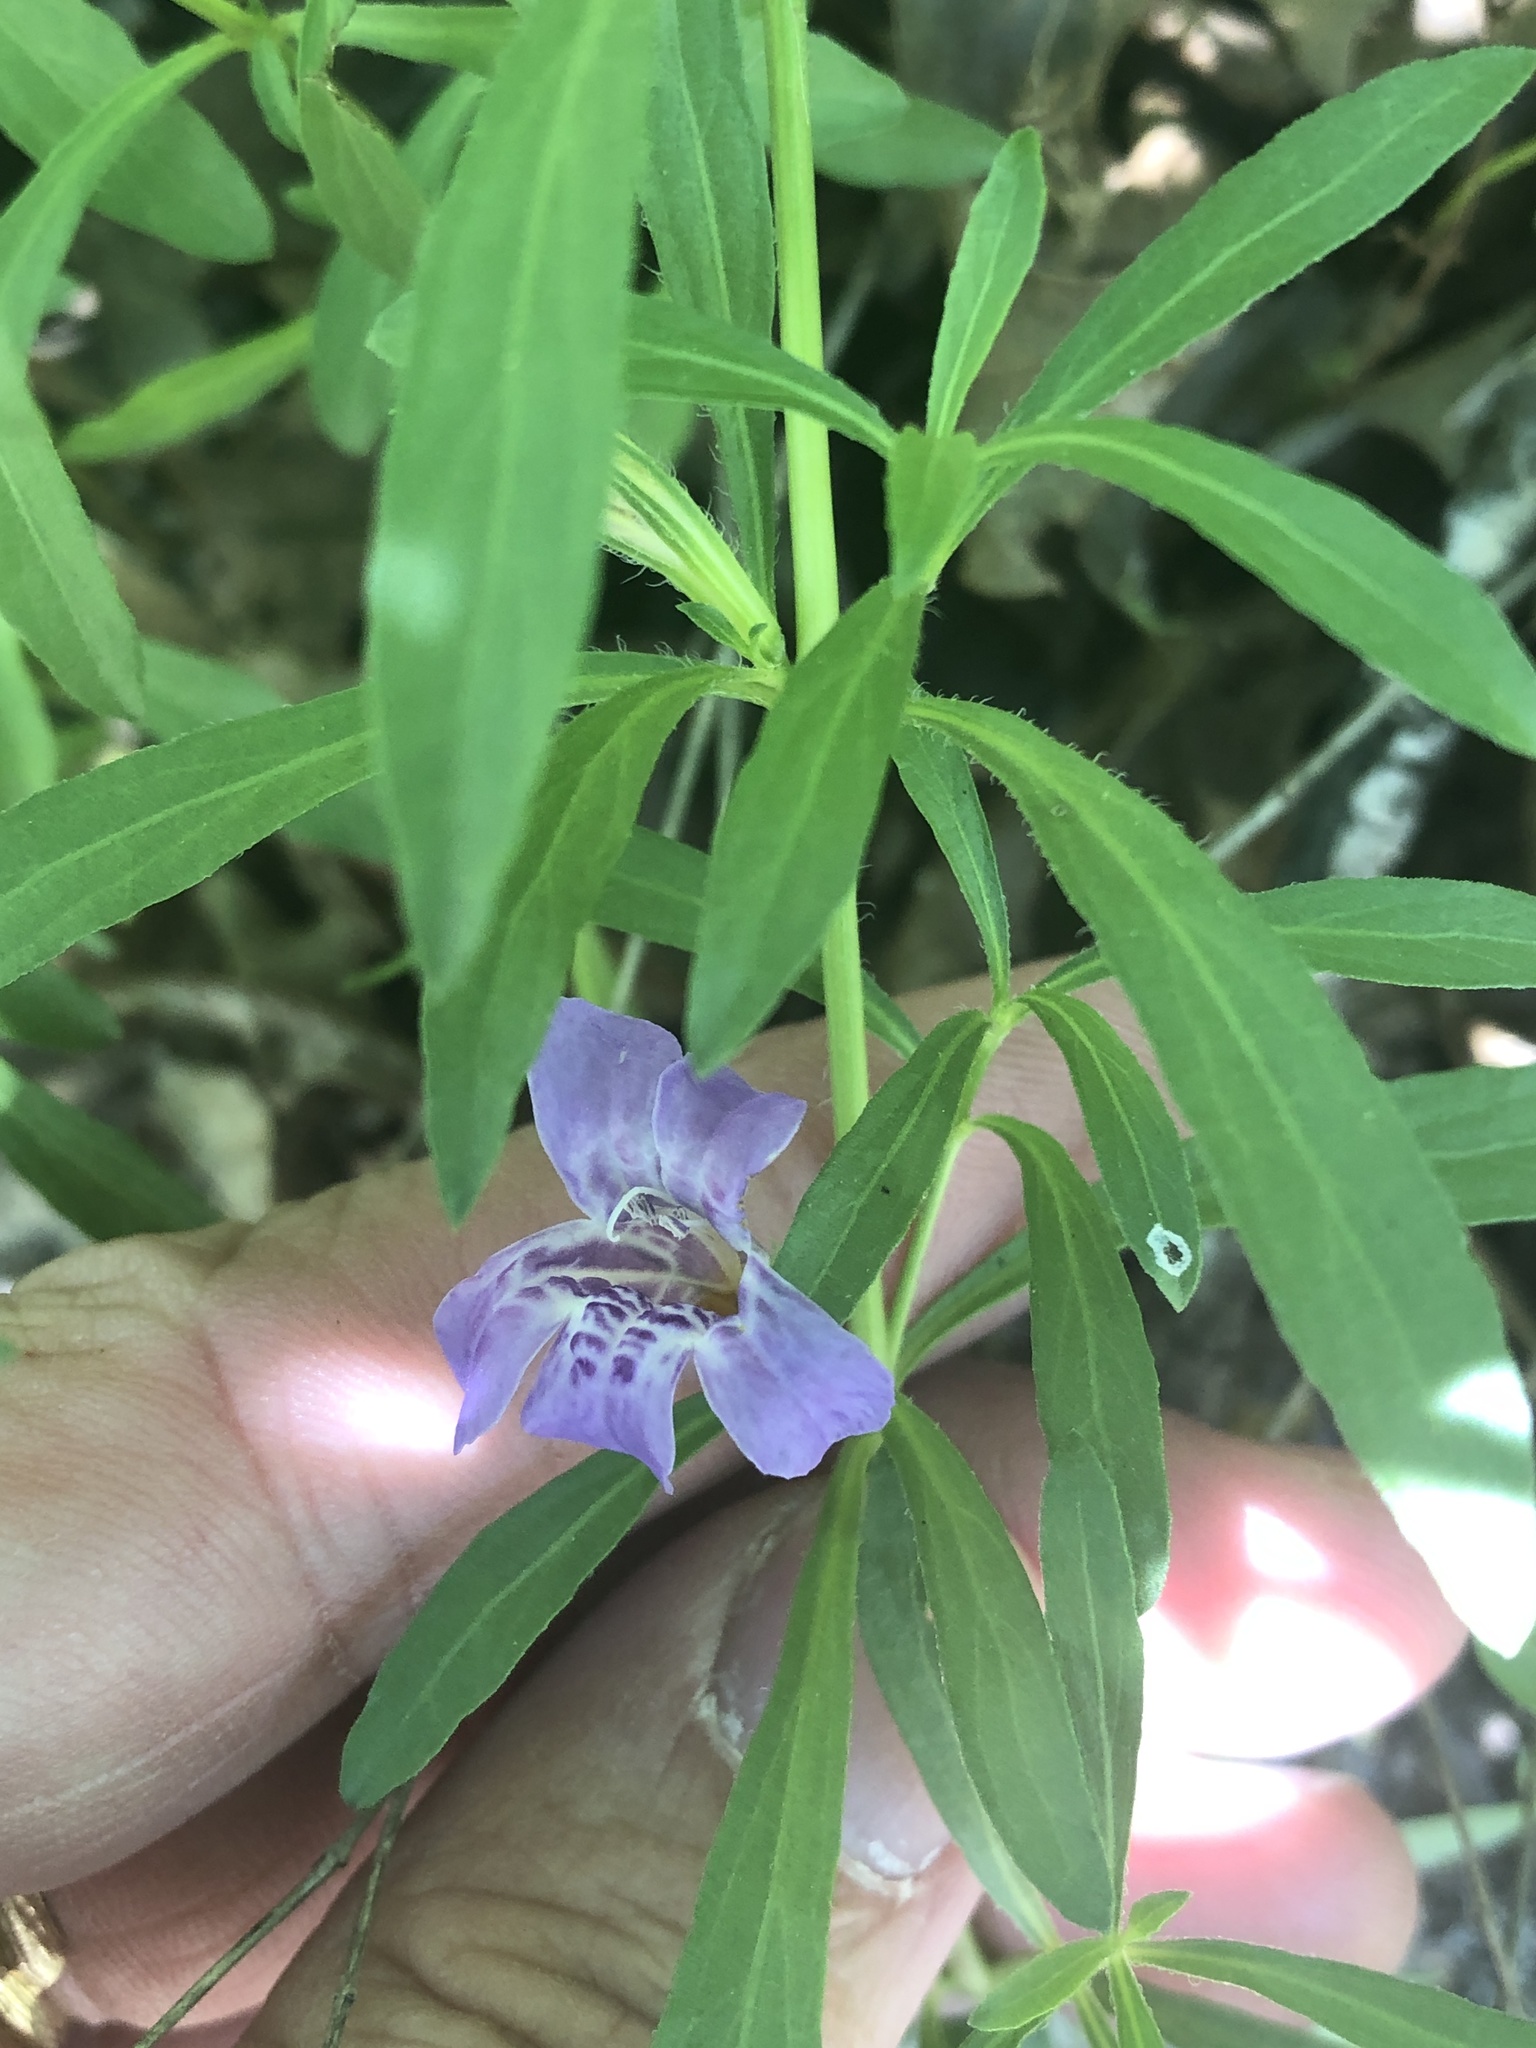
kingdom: Plantae
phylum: Tracheophyta
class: Magnoliopsida
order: Lamiales
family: Acanthaceae
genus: Dyschoriste
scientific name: Dyschoriste linearis
